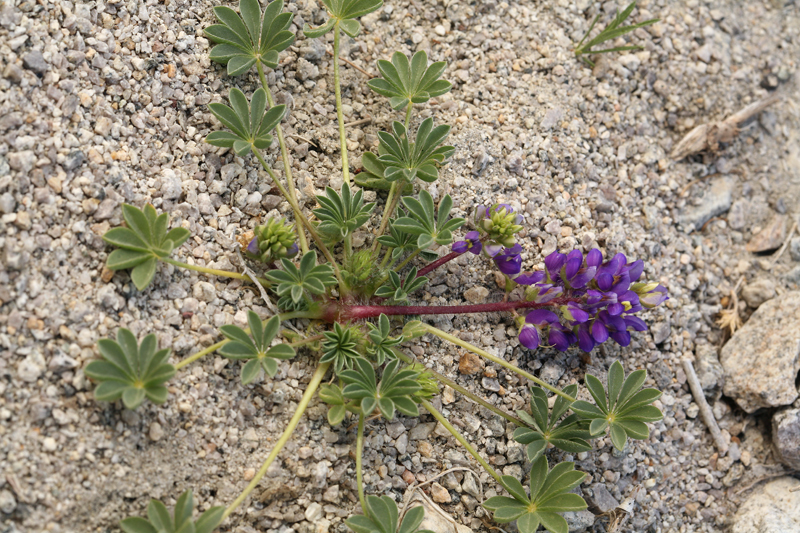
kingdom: Plantae
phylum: Tracheophyta
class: Magnoliopsida
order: Fabales
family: Fabaceae
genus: Lupinus
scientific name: Lupinus flavoculatus
